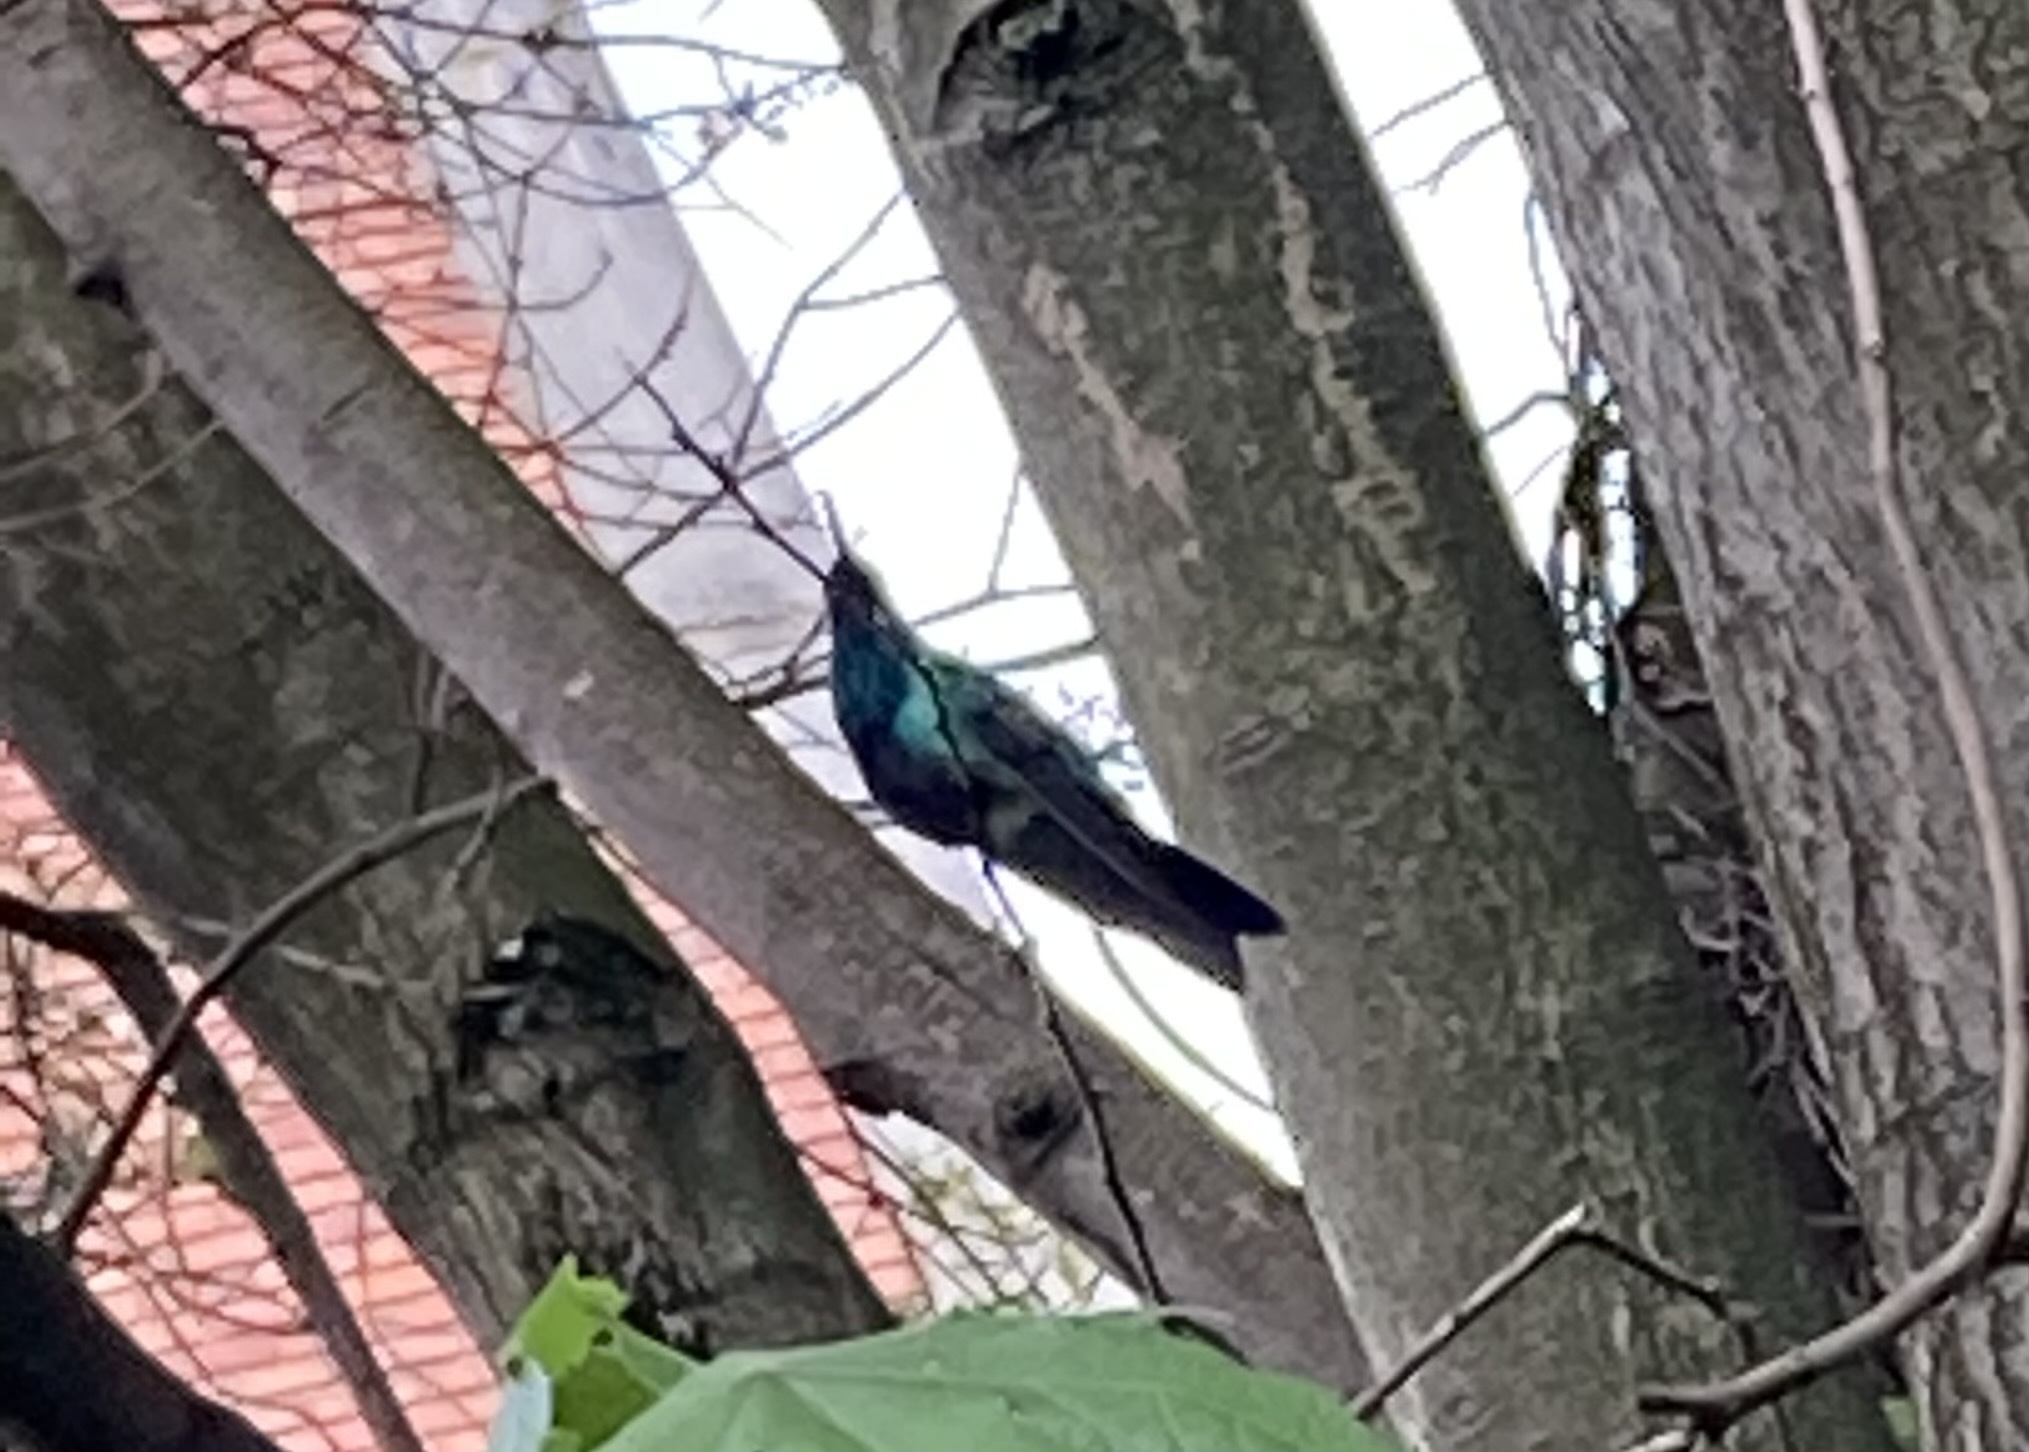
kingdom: Animalia
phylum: Chordata
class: Aves
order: Apodiformes
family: Trochilidae
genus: Colibri
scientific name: Colibri coruscans
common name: Sparkling violetear
